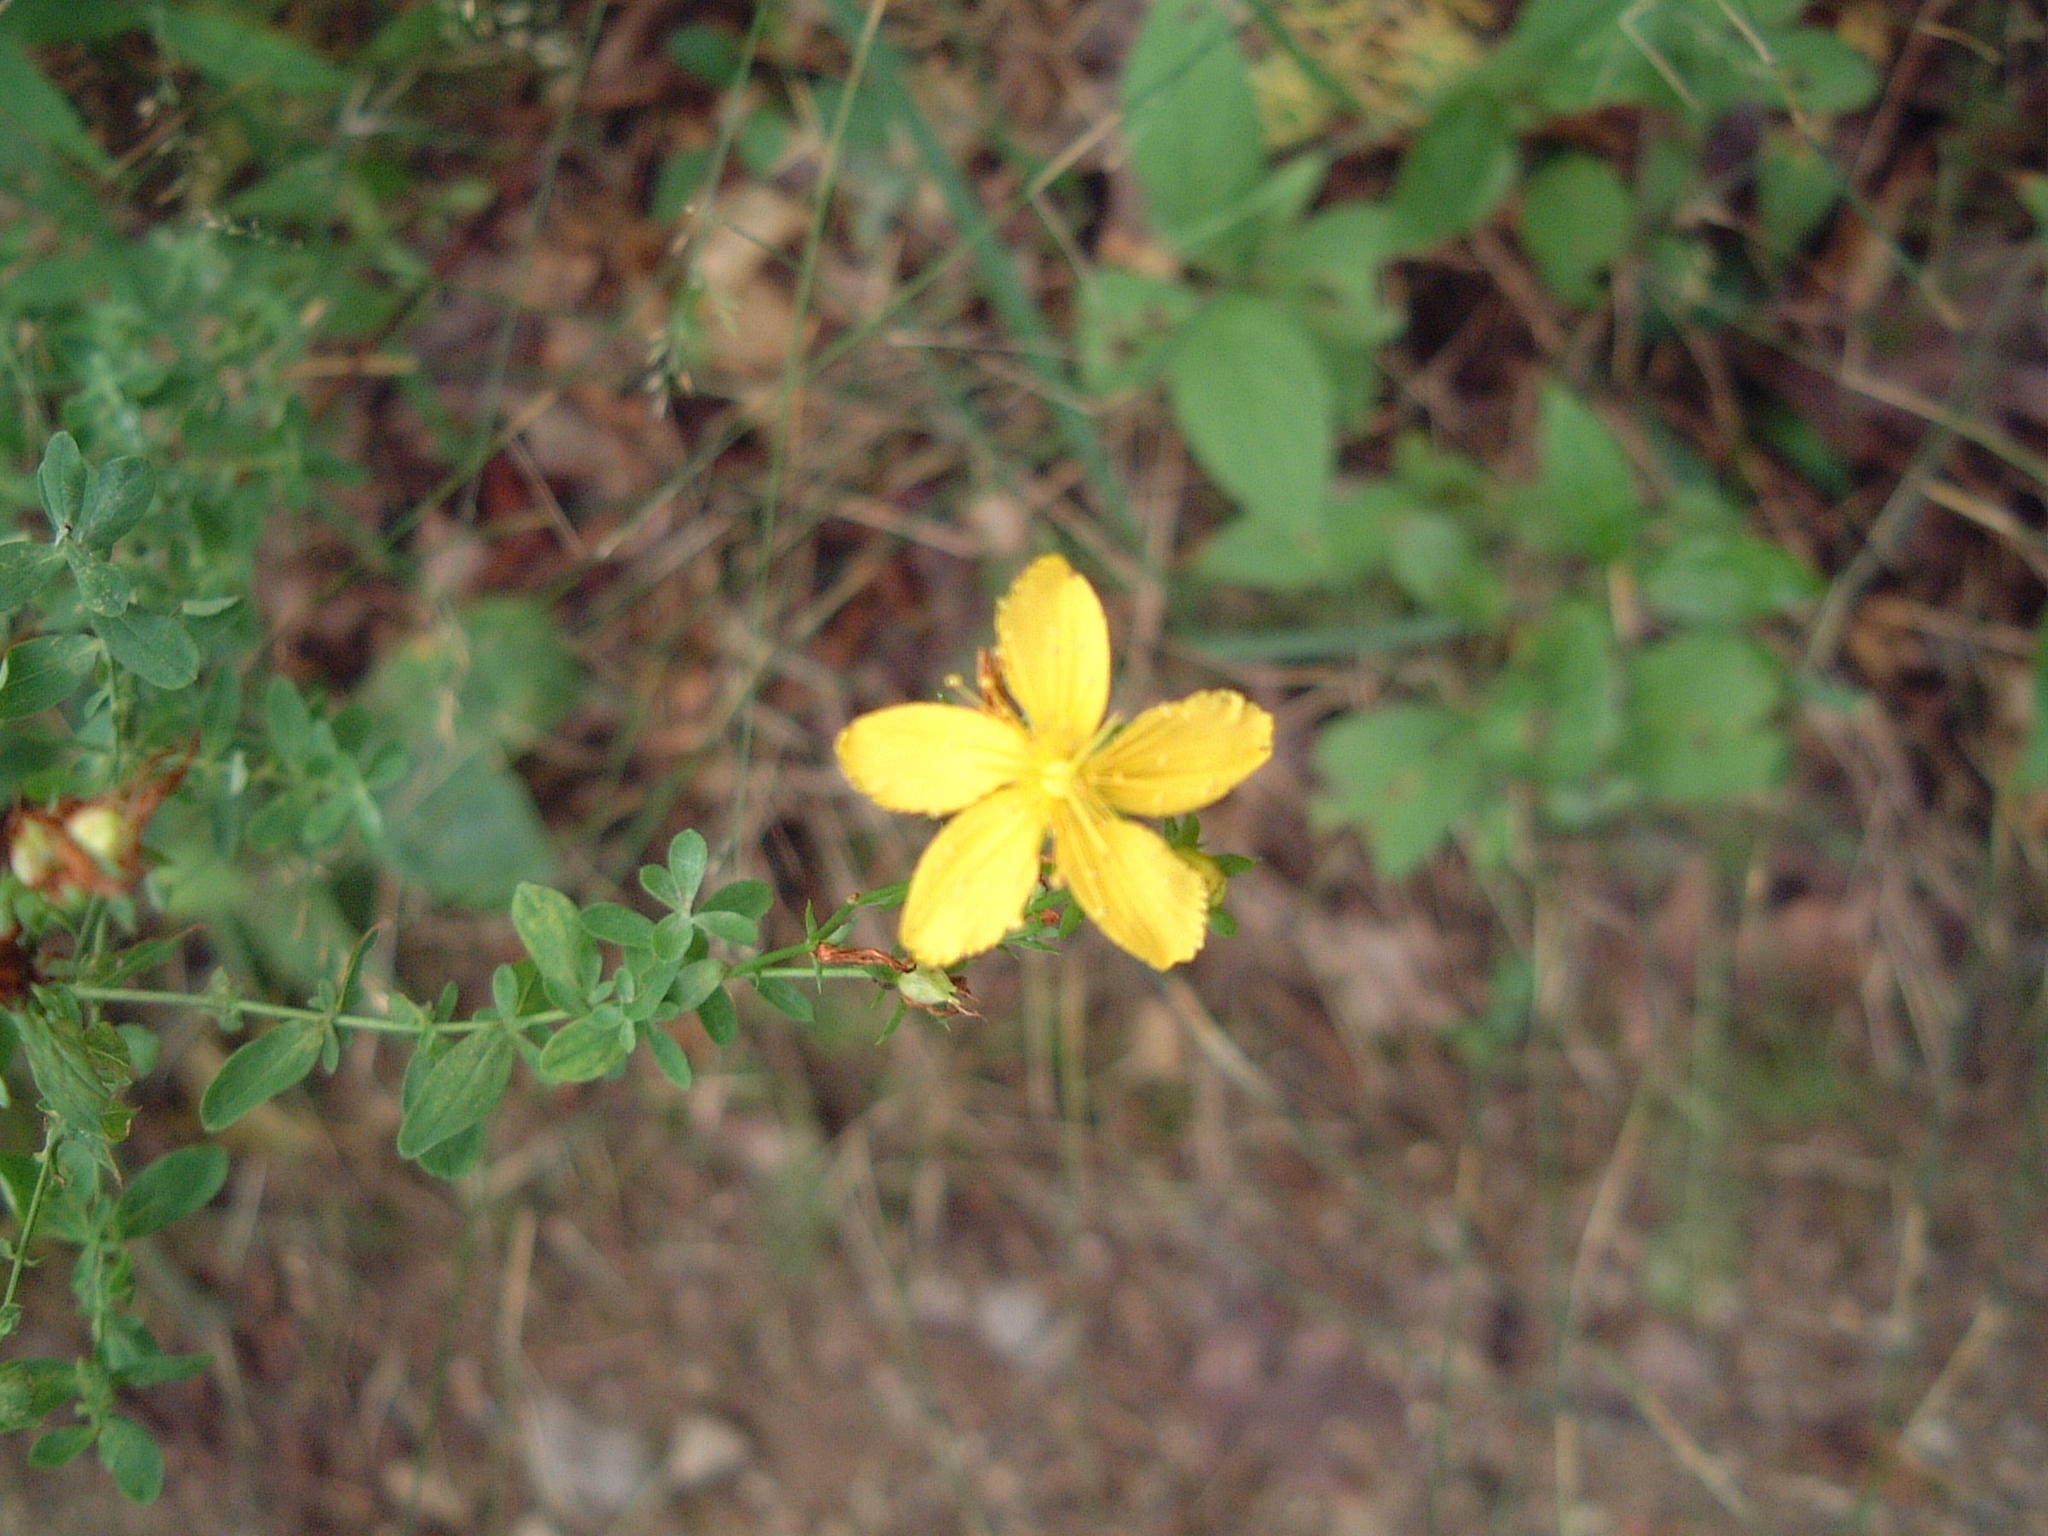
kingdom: Plantae
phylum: Tracheophyta
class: Magnoliopsida
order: Malpighiales
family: Hypericaceae
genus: Hypericum
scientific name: Hypericum perforatum
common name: Common st. johnswort
